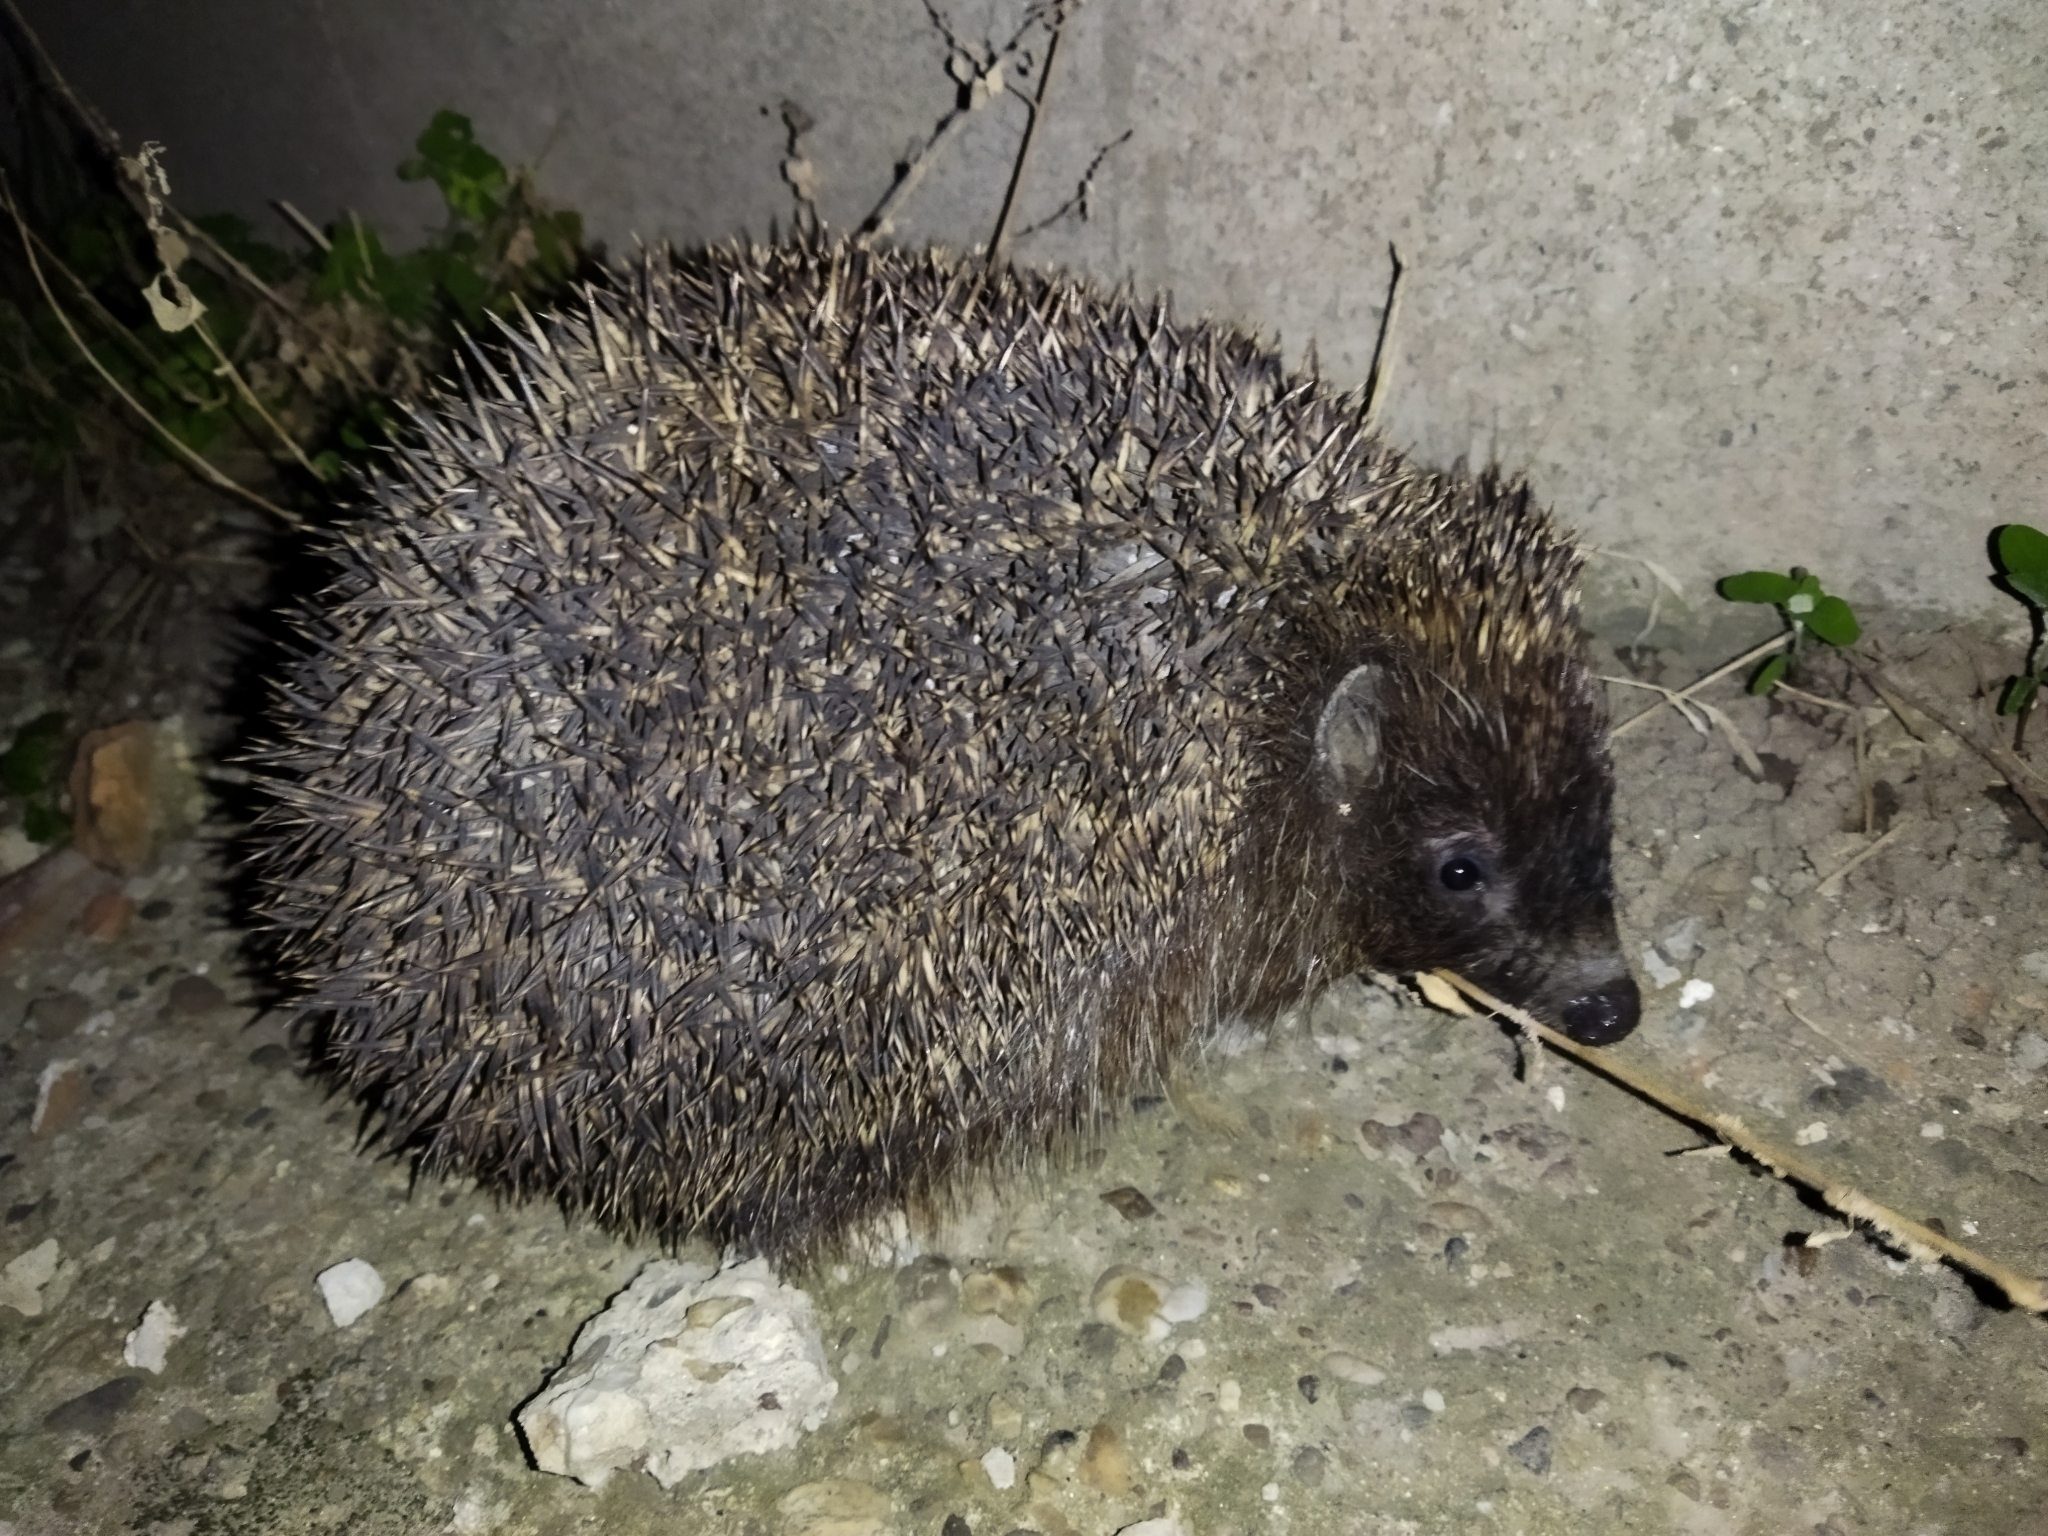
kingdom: Animalia
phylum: Chordata
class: Mammalia
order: Erinaceomorpha
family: Erinaceidae
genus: Erinaceus
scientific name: Erinaceus roumanicus
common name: Northern white-breasted hedgehog
